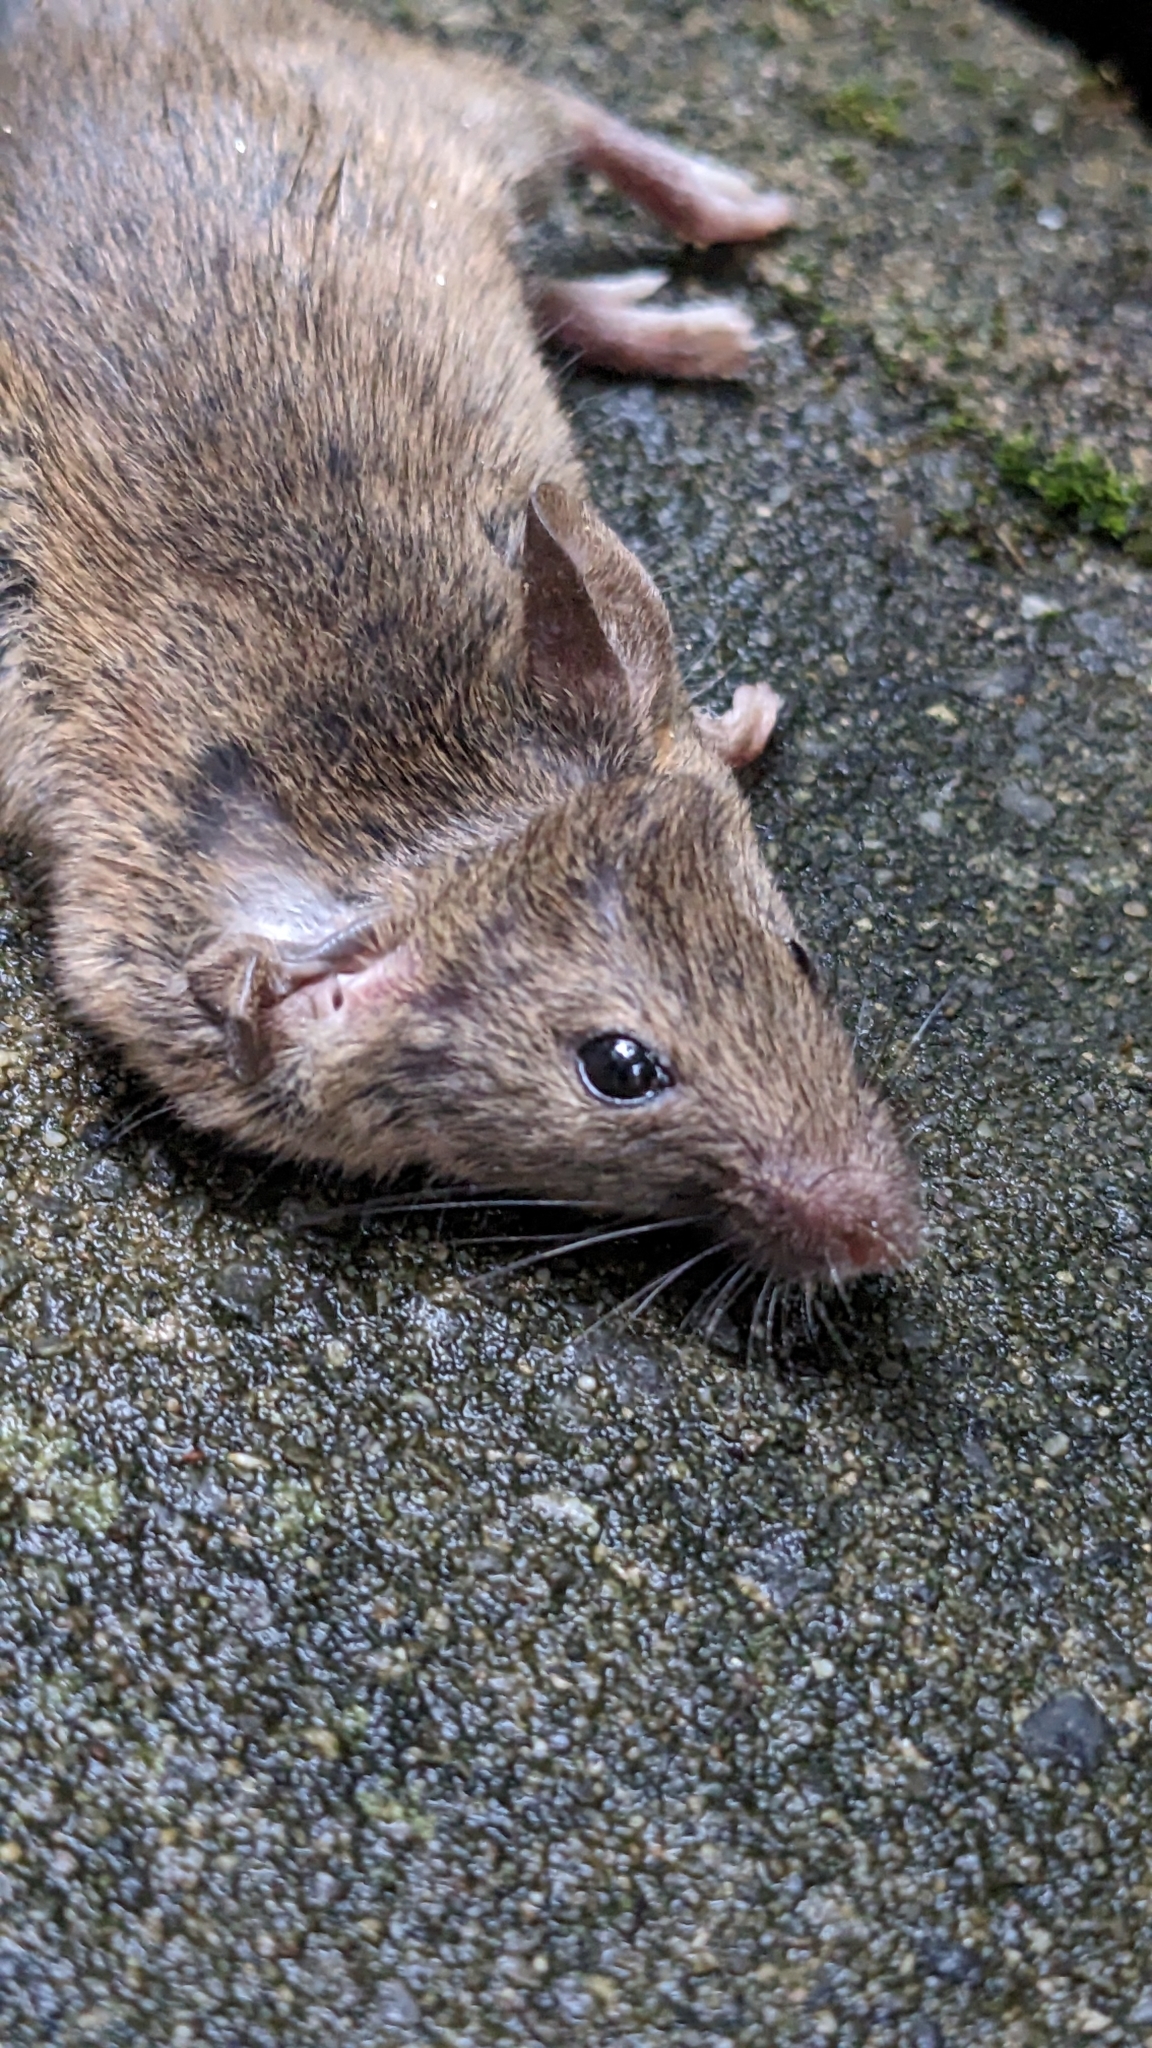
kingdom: Animalia
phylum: Chordata
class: Mammalia
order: Rodentia
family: Muridae
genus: Mus
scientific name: Mus musculus
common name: House mouse
